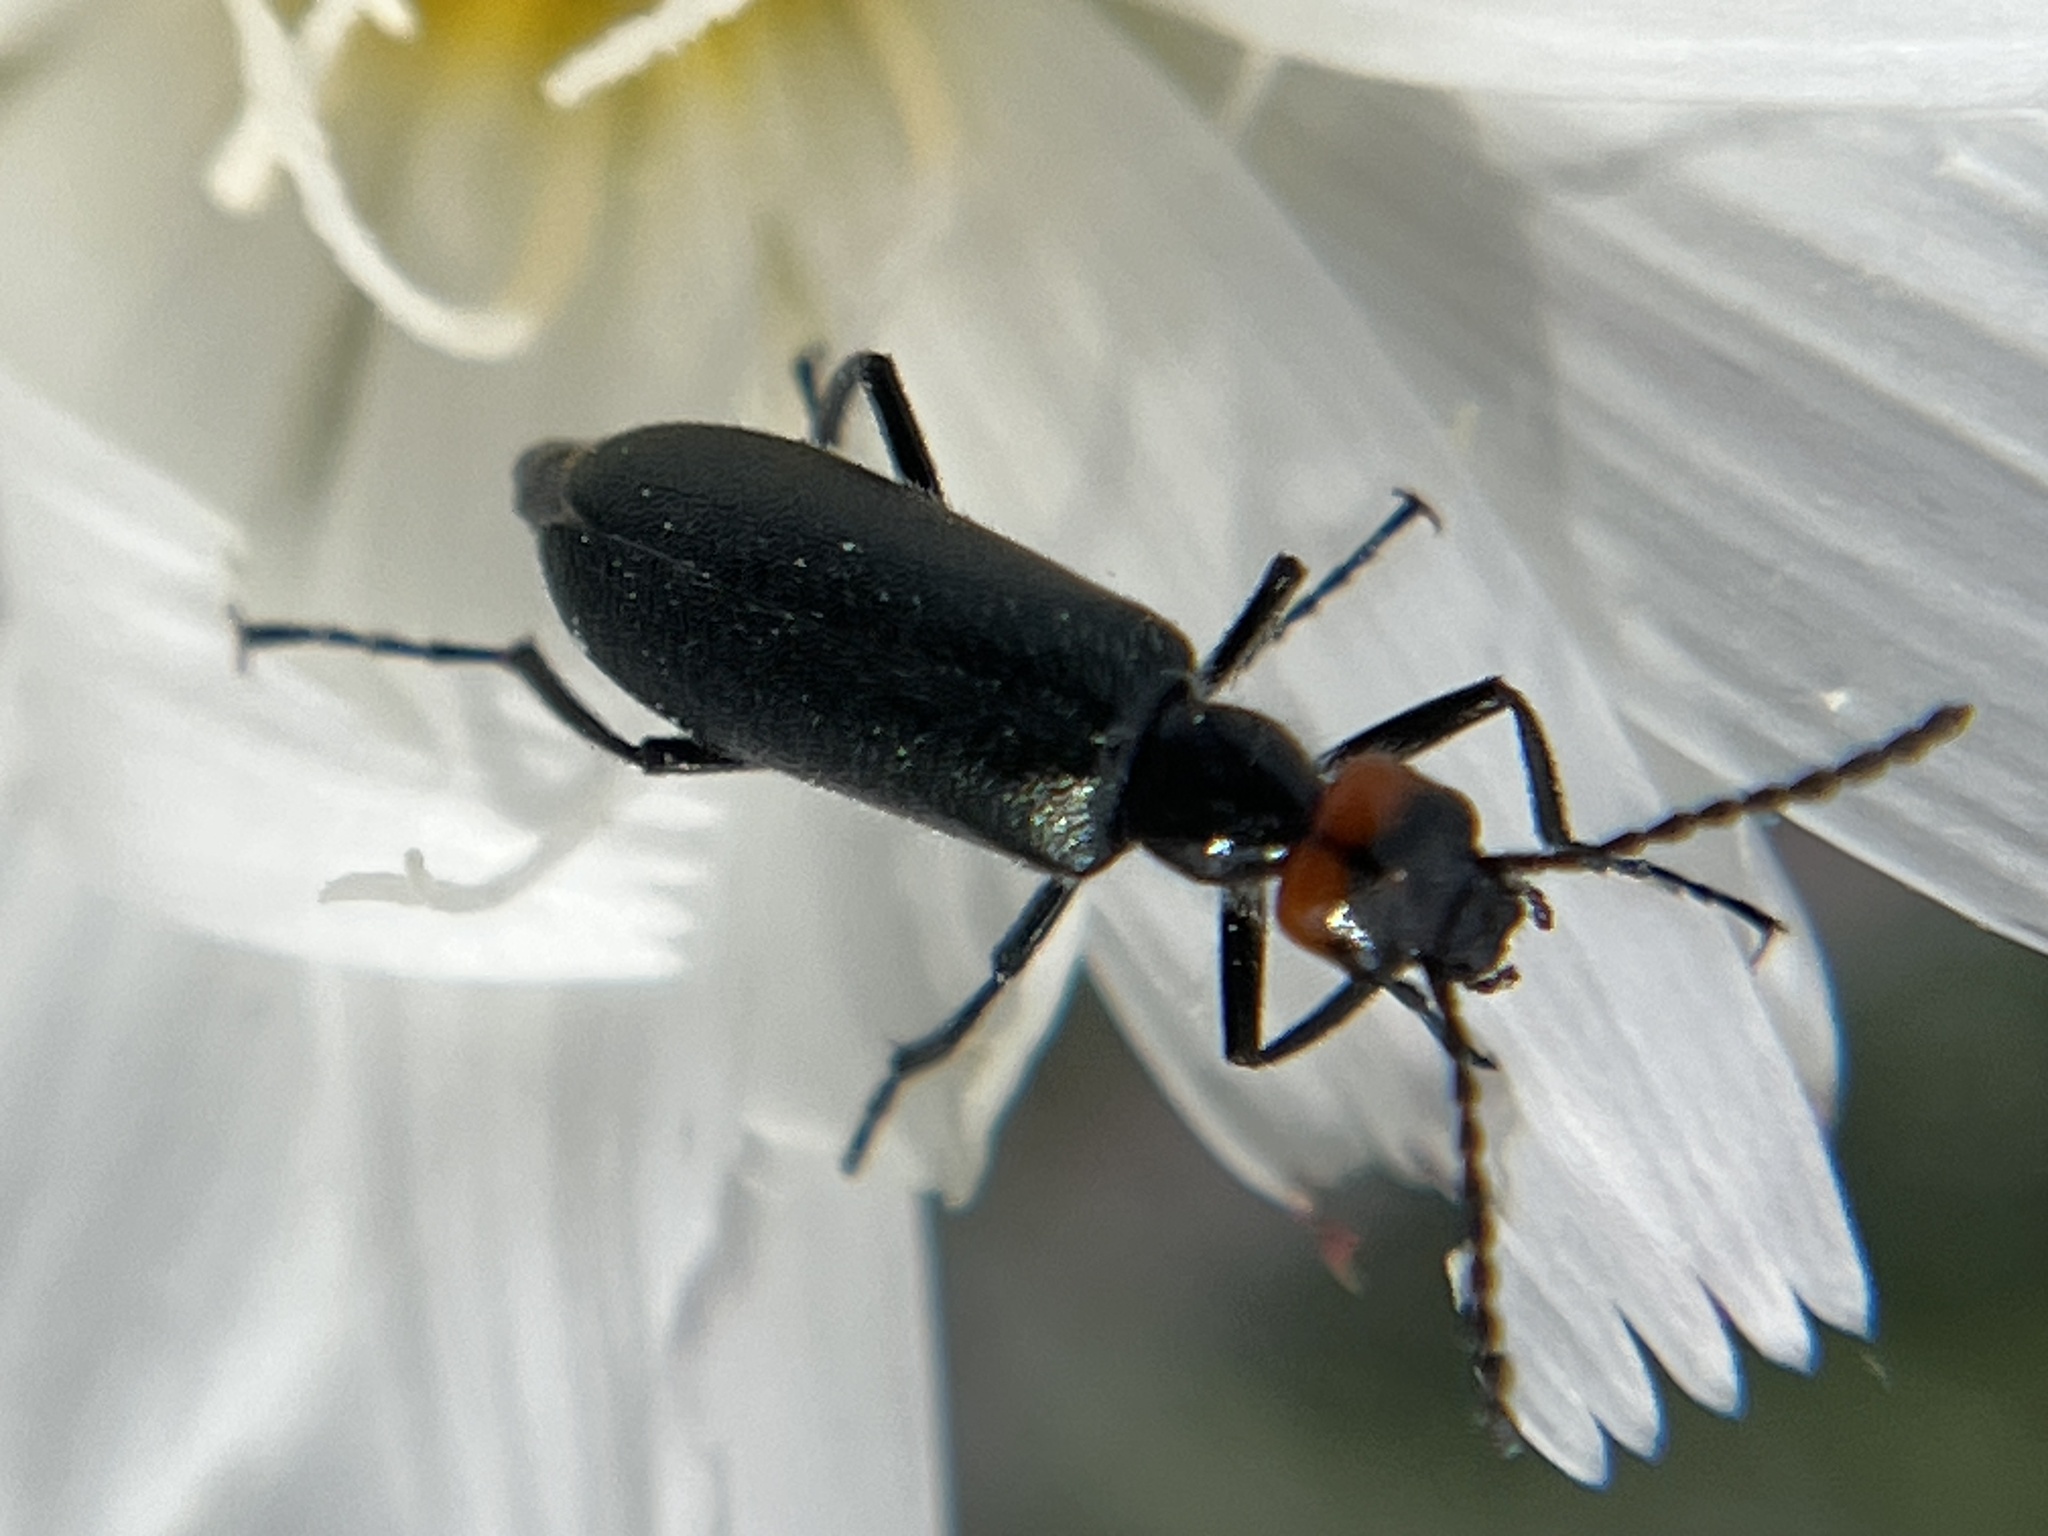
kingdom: Animalia
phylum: Arthropoda
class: Insecta
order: Coleoptera
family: Meloidae
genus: Lytta
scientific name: Lytta auriculata
